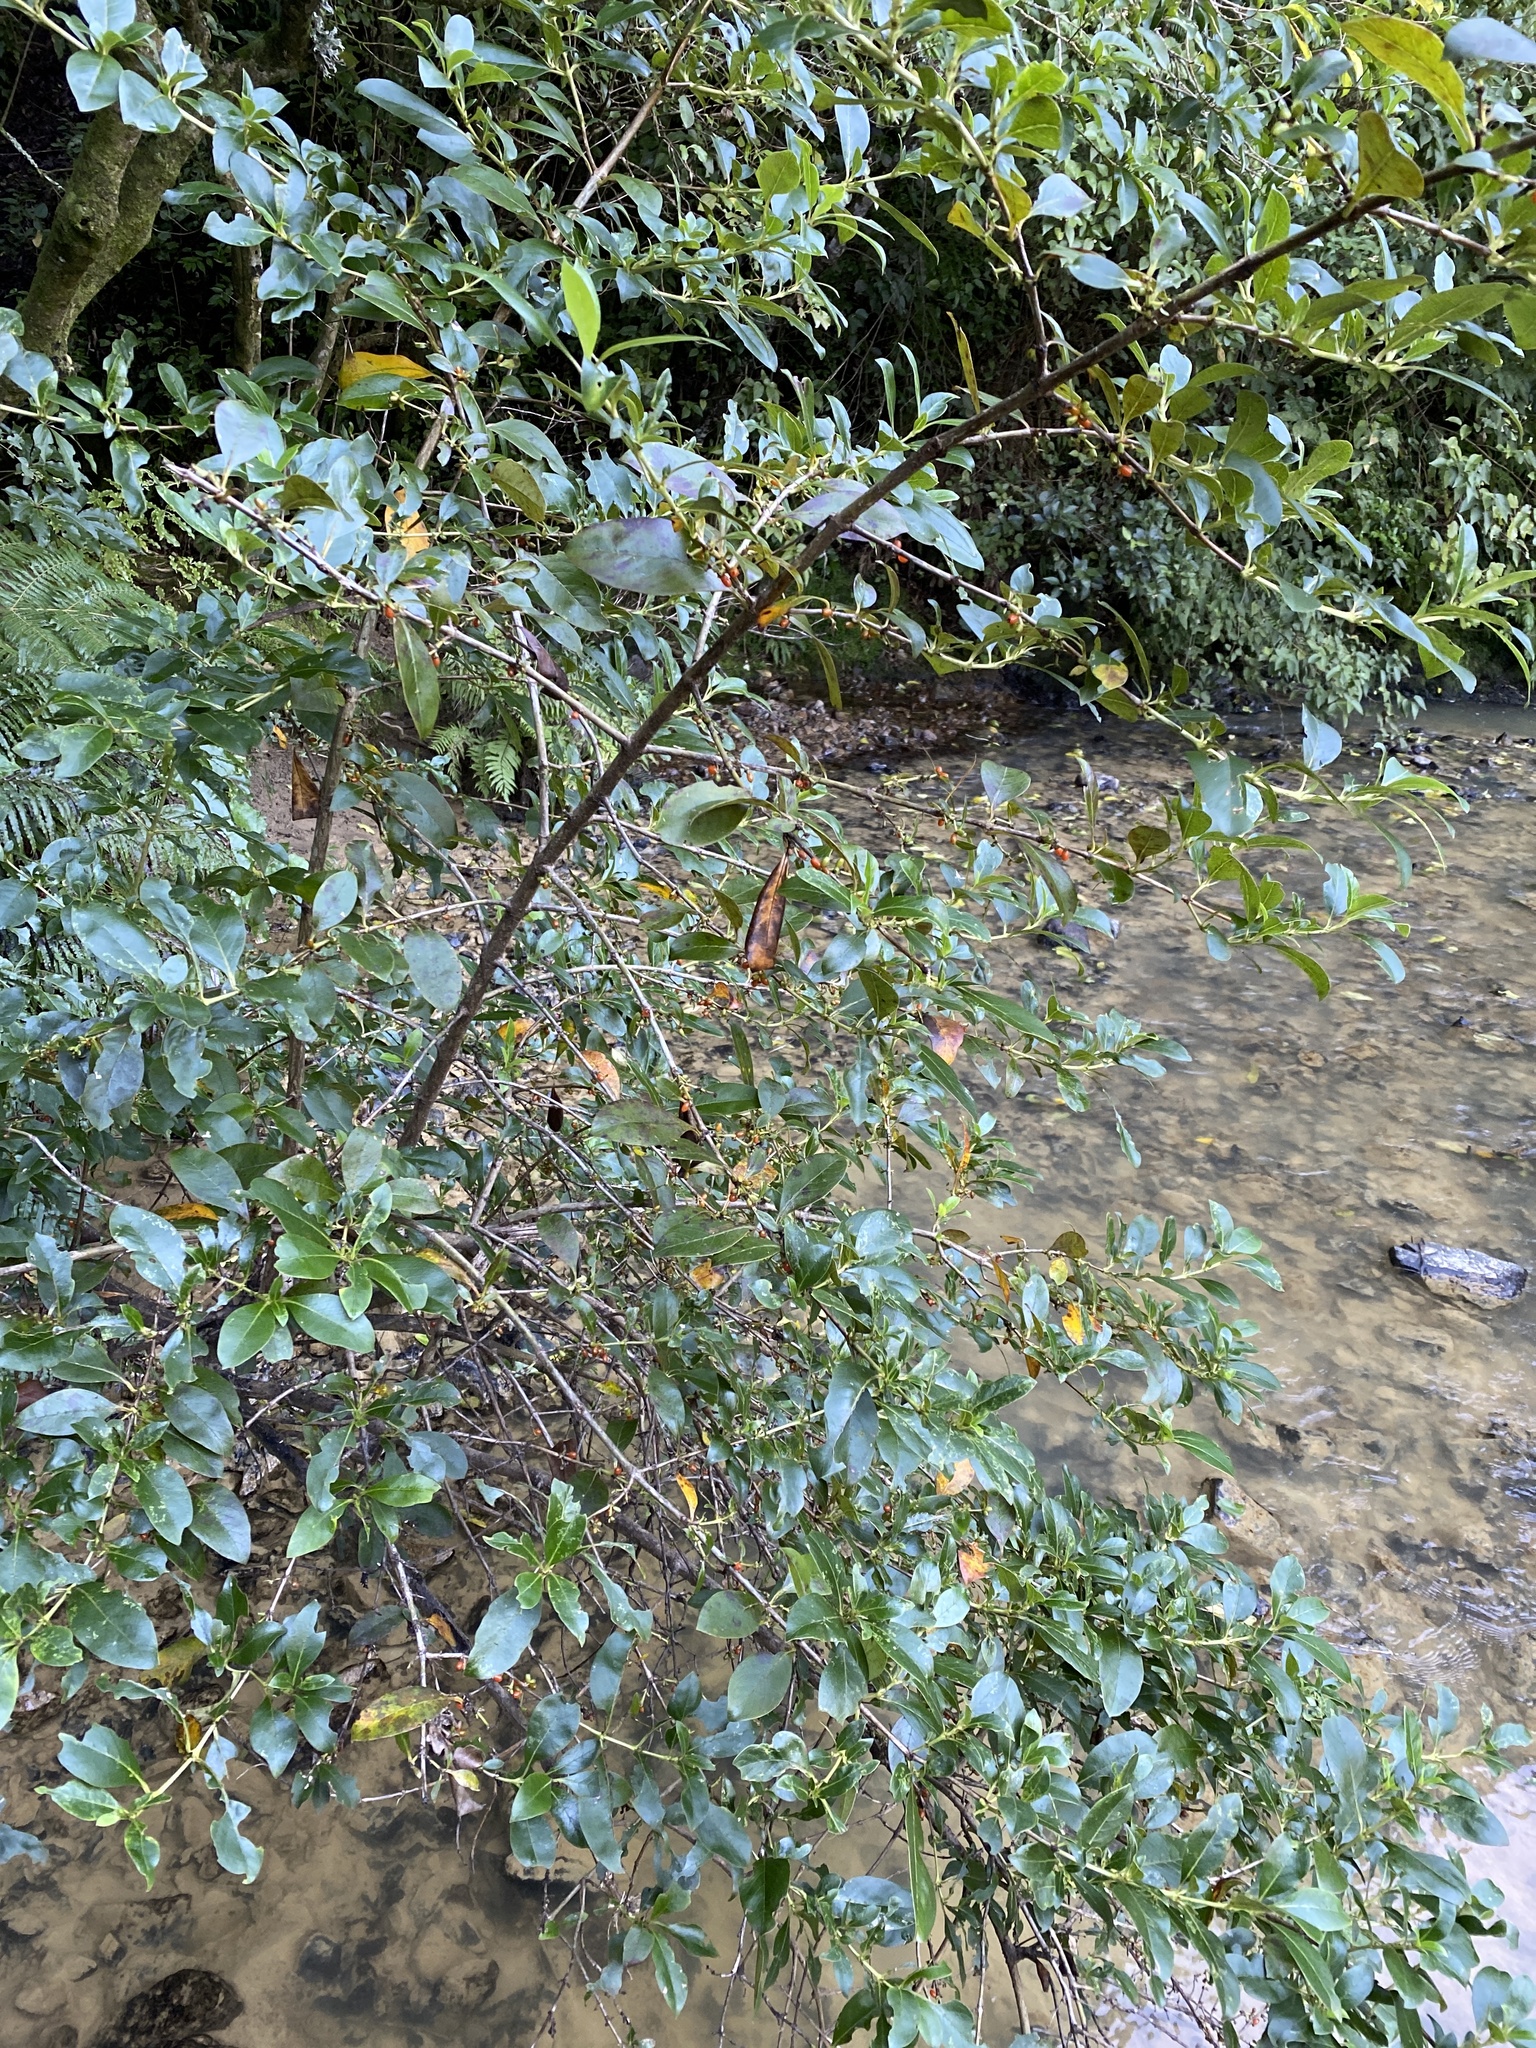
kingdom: Plantae
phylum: Tracheophyta
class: Magnoliopsida
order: Gentianales
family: Rubiaceae
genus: Coprosma
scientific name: Coprosma robusta
